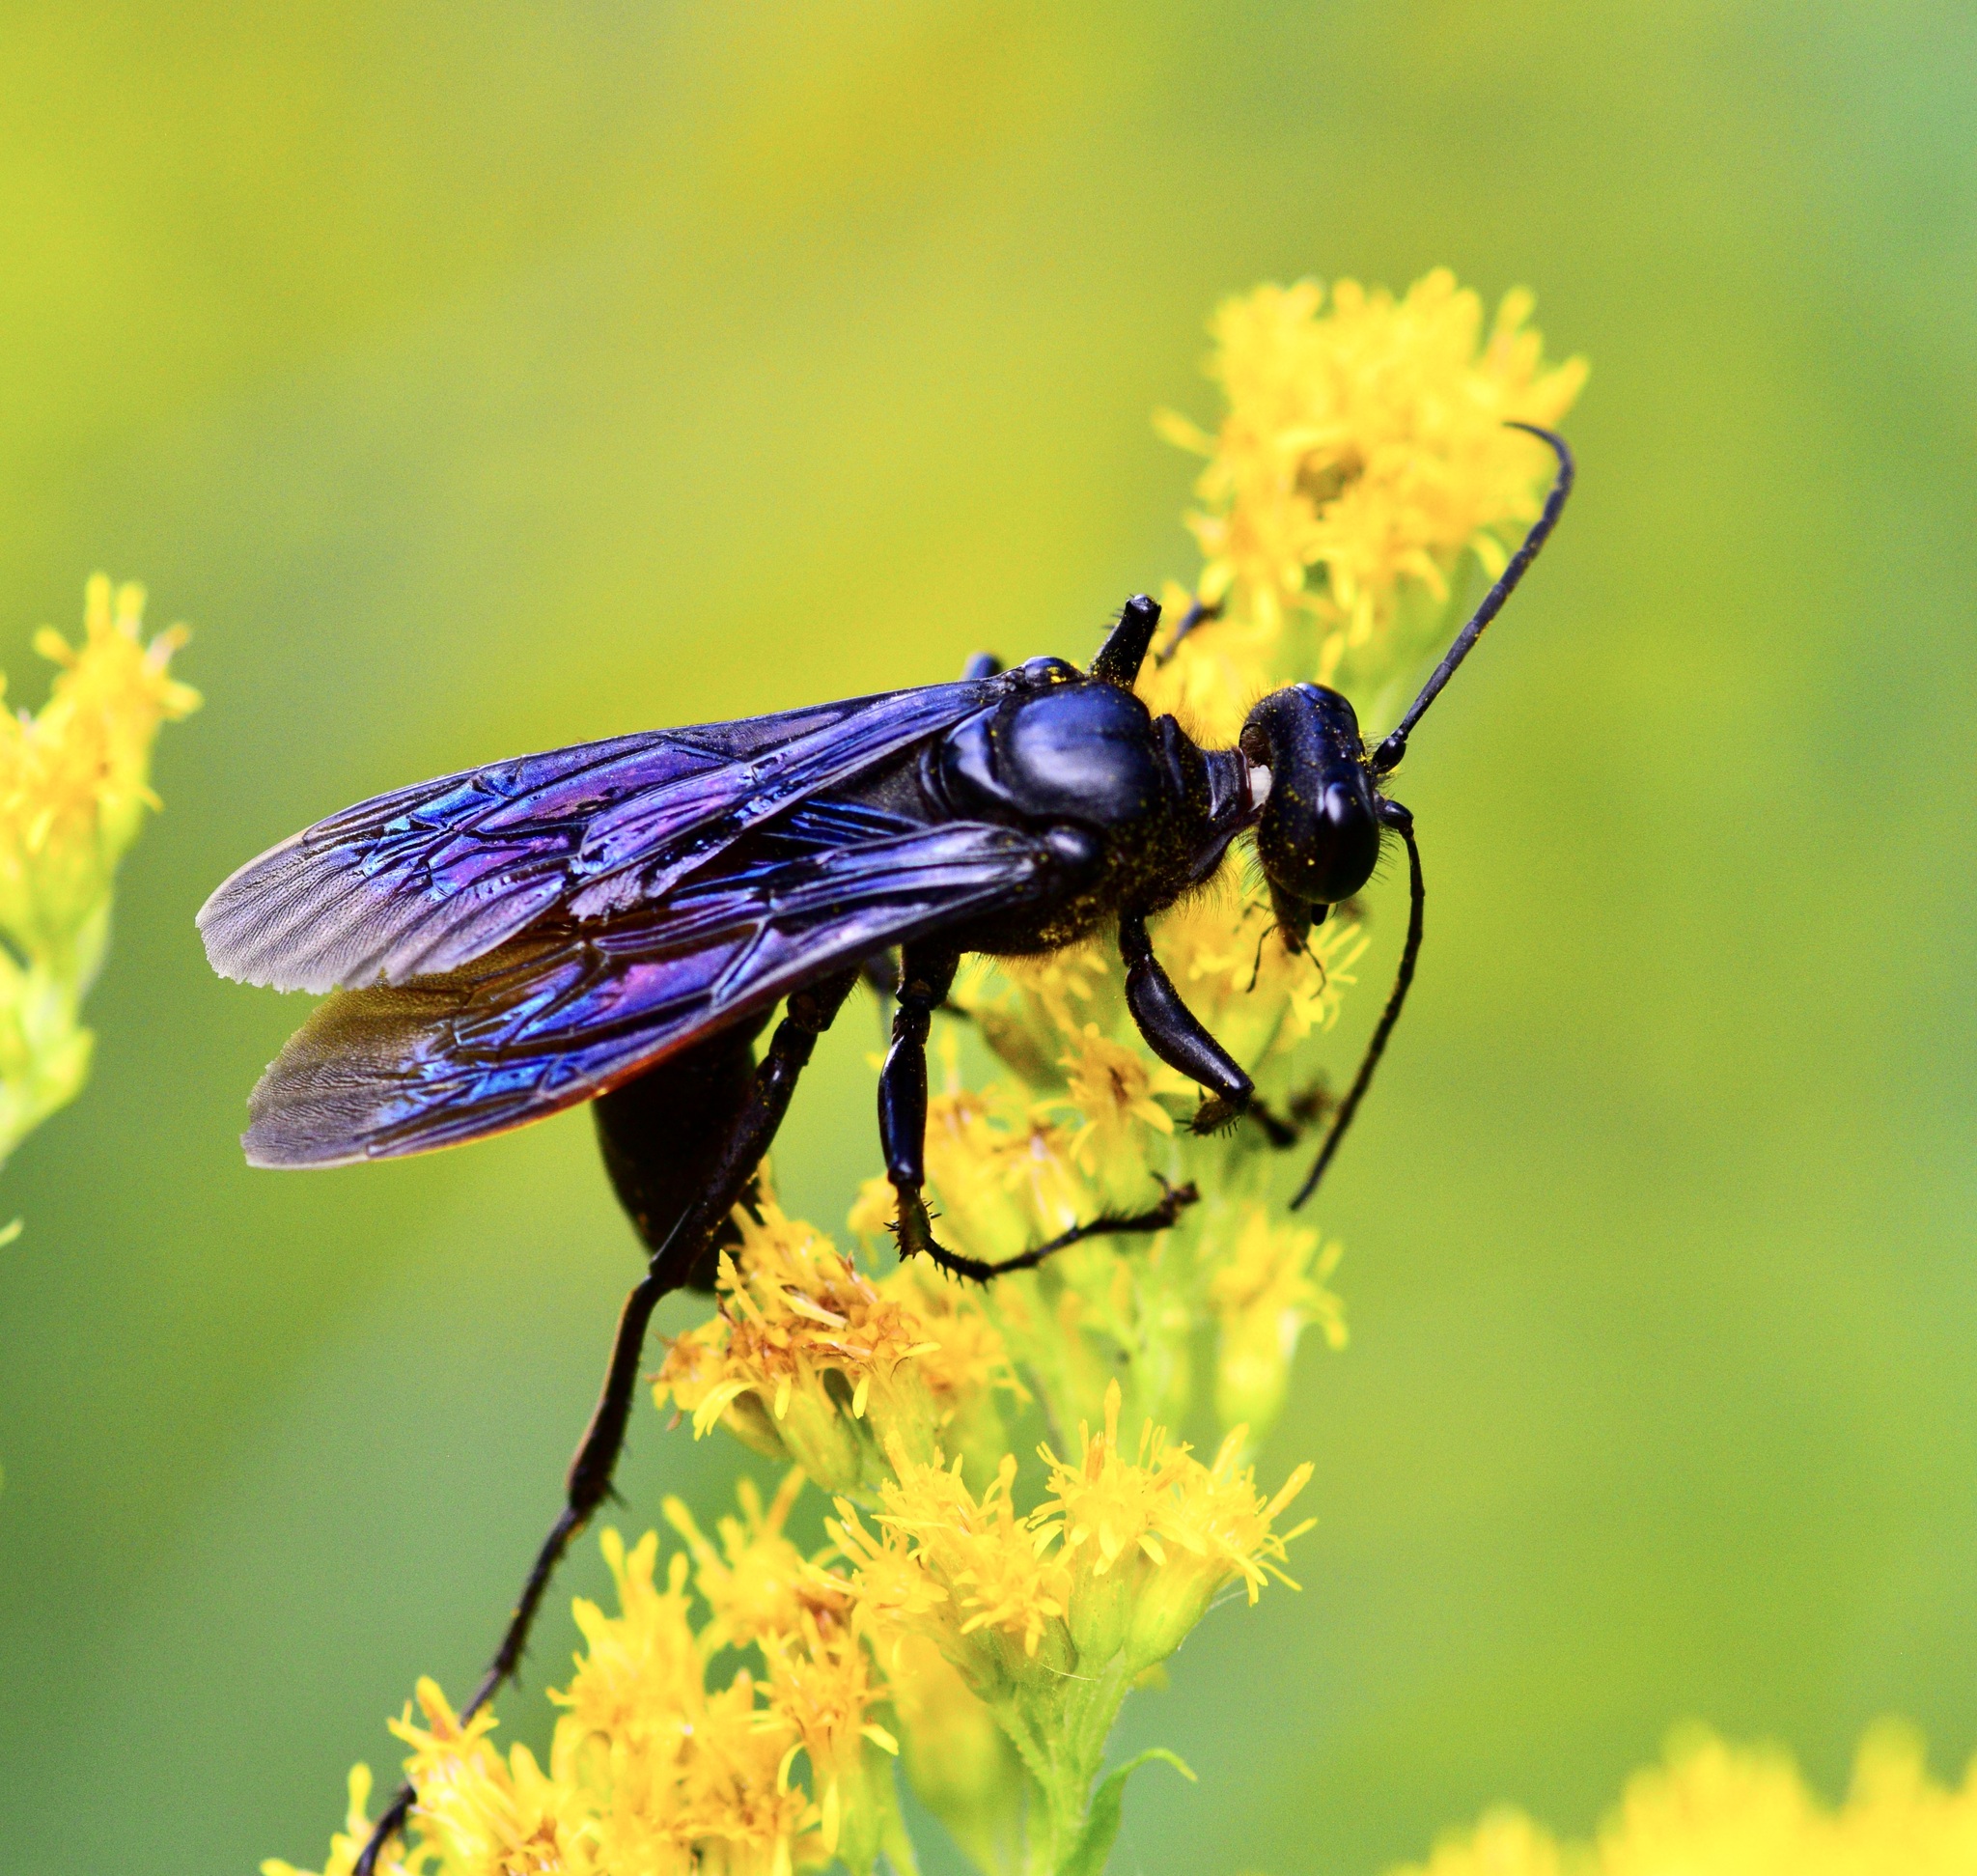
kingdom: Animalia
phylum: Arthropoda
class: Insecta
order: Hymenoptera
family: Sphecidae
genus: Sphex
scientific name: Sphex pensylvanicus
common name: Great black digger wasp
